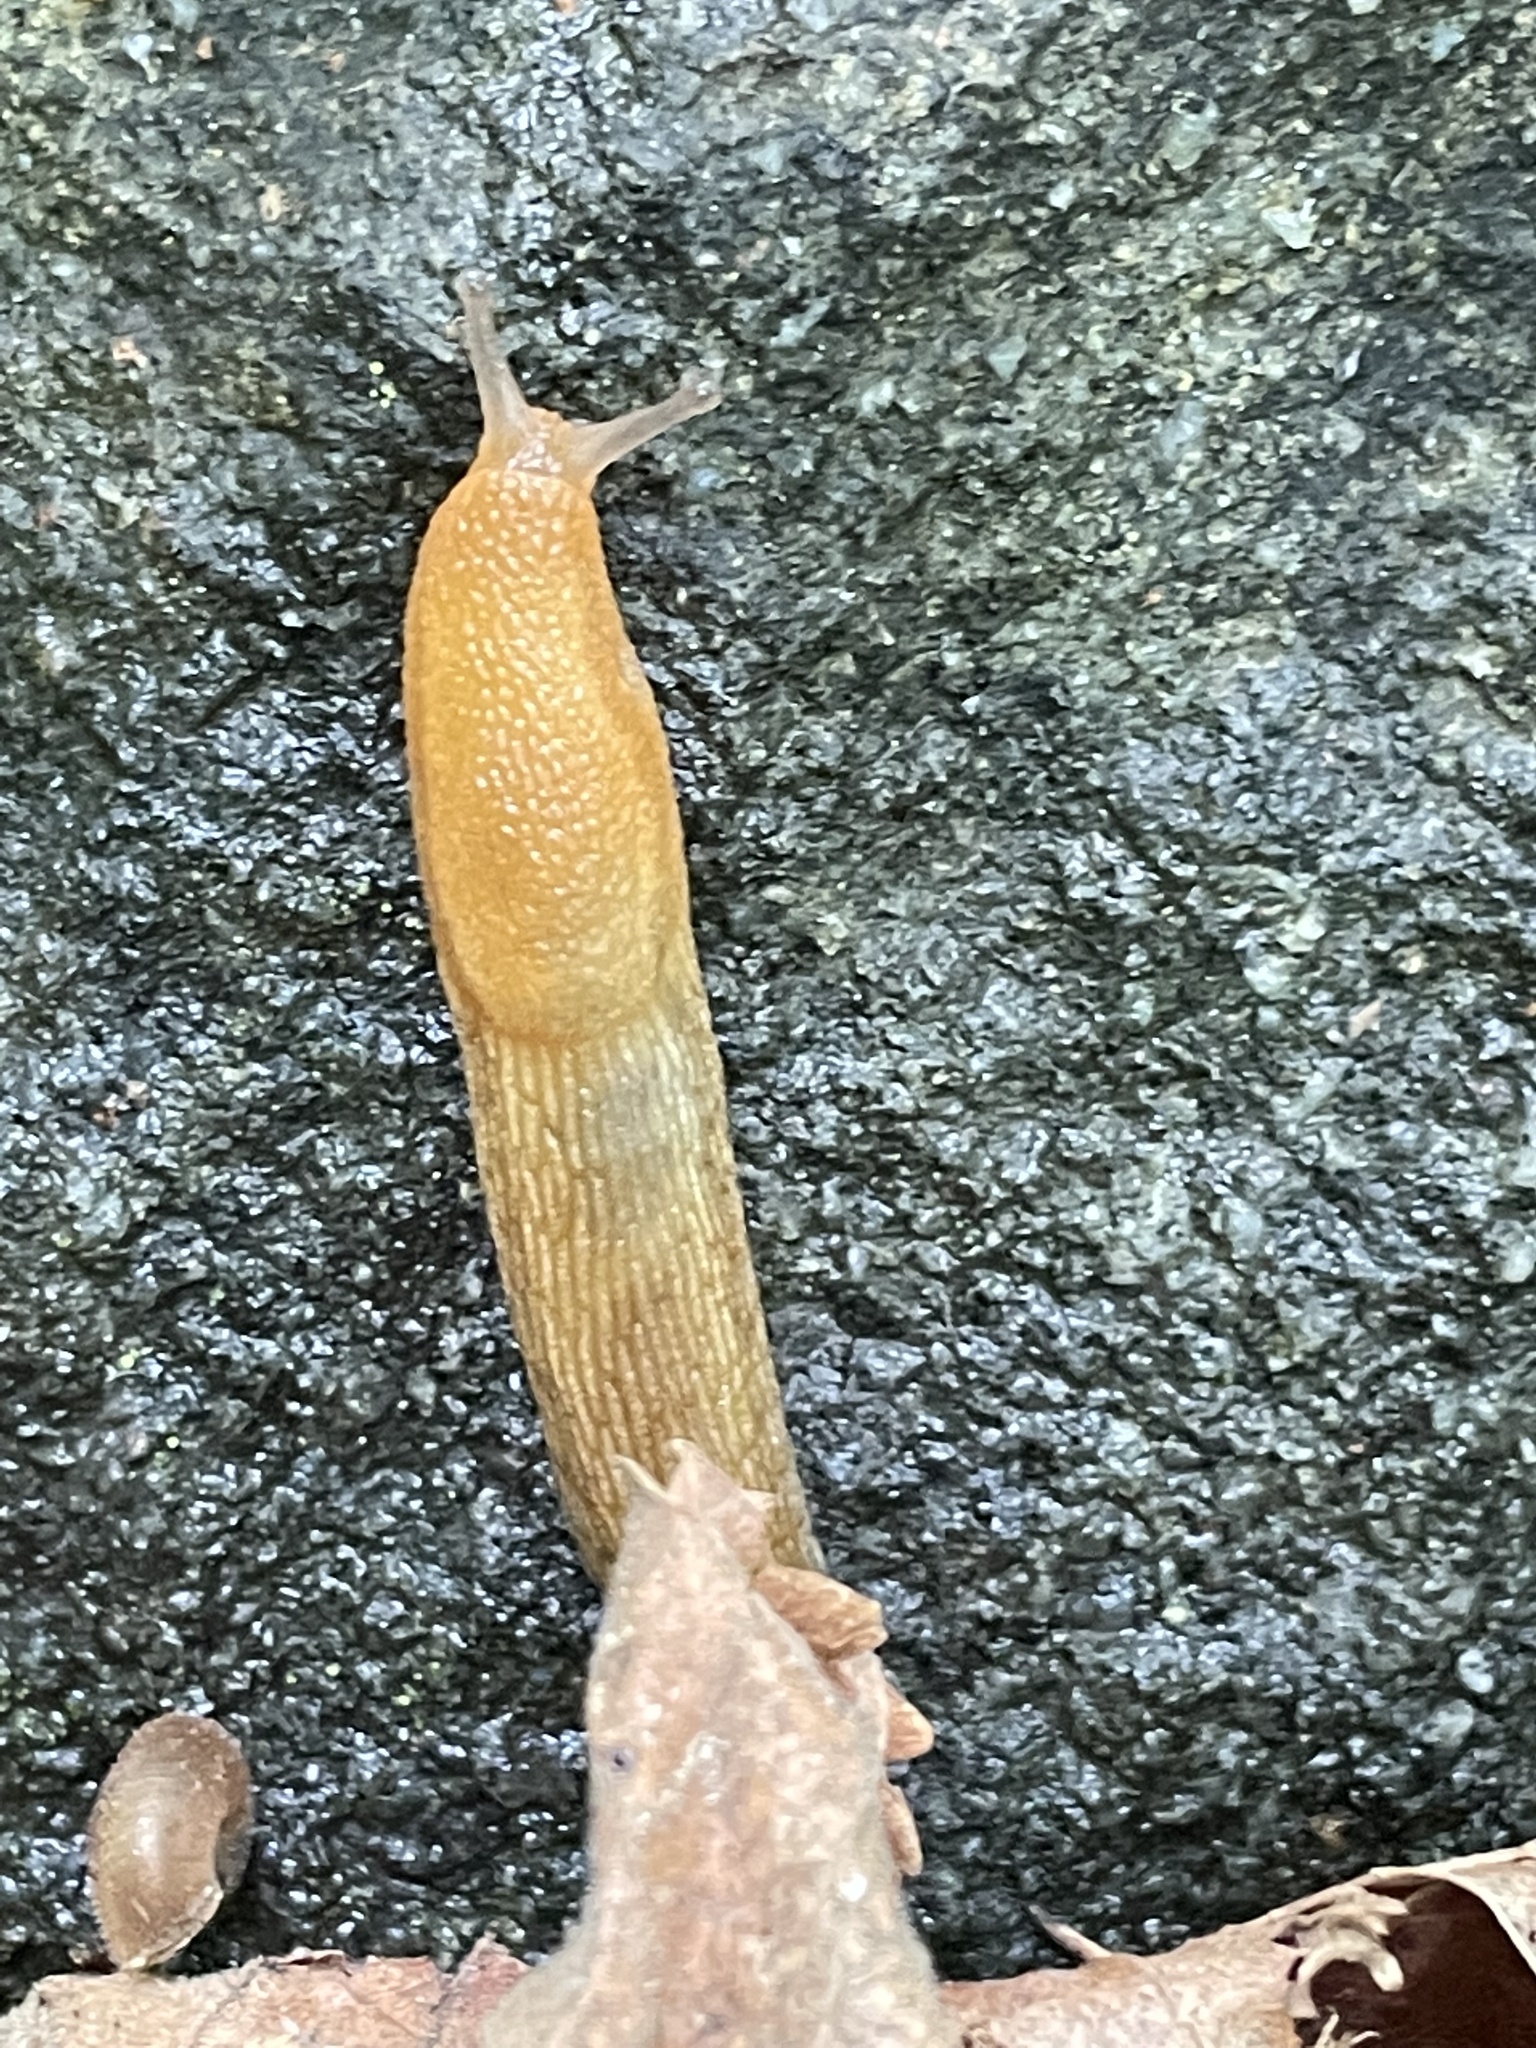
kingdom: Animalia
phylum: Mollusca
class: Gastropoda
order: Stylommatophora
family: Arionidae
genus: Arion
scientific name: Arion subfuscus
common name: Dusky arion
